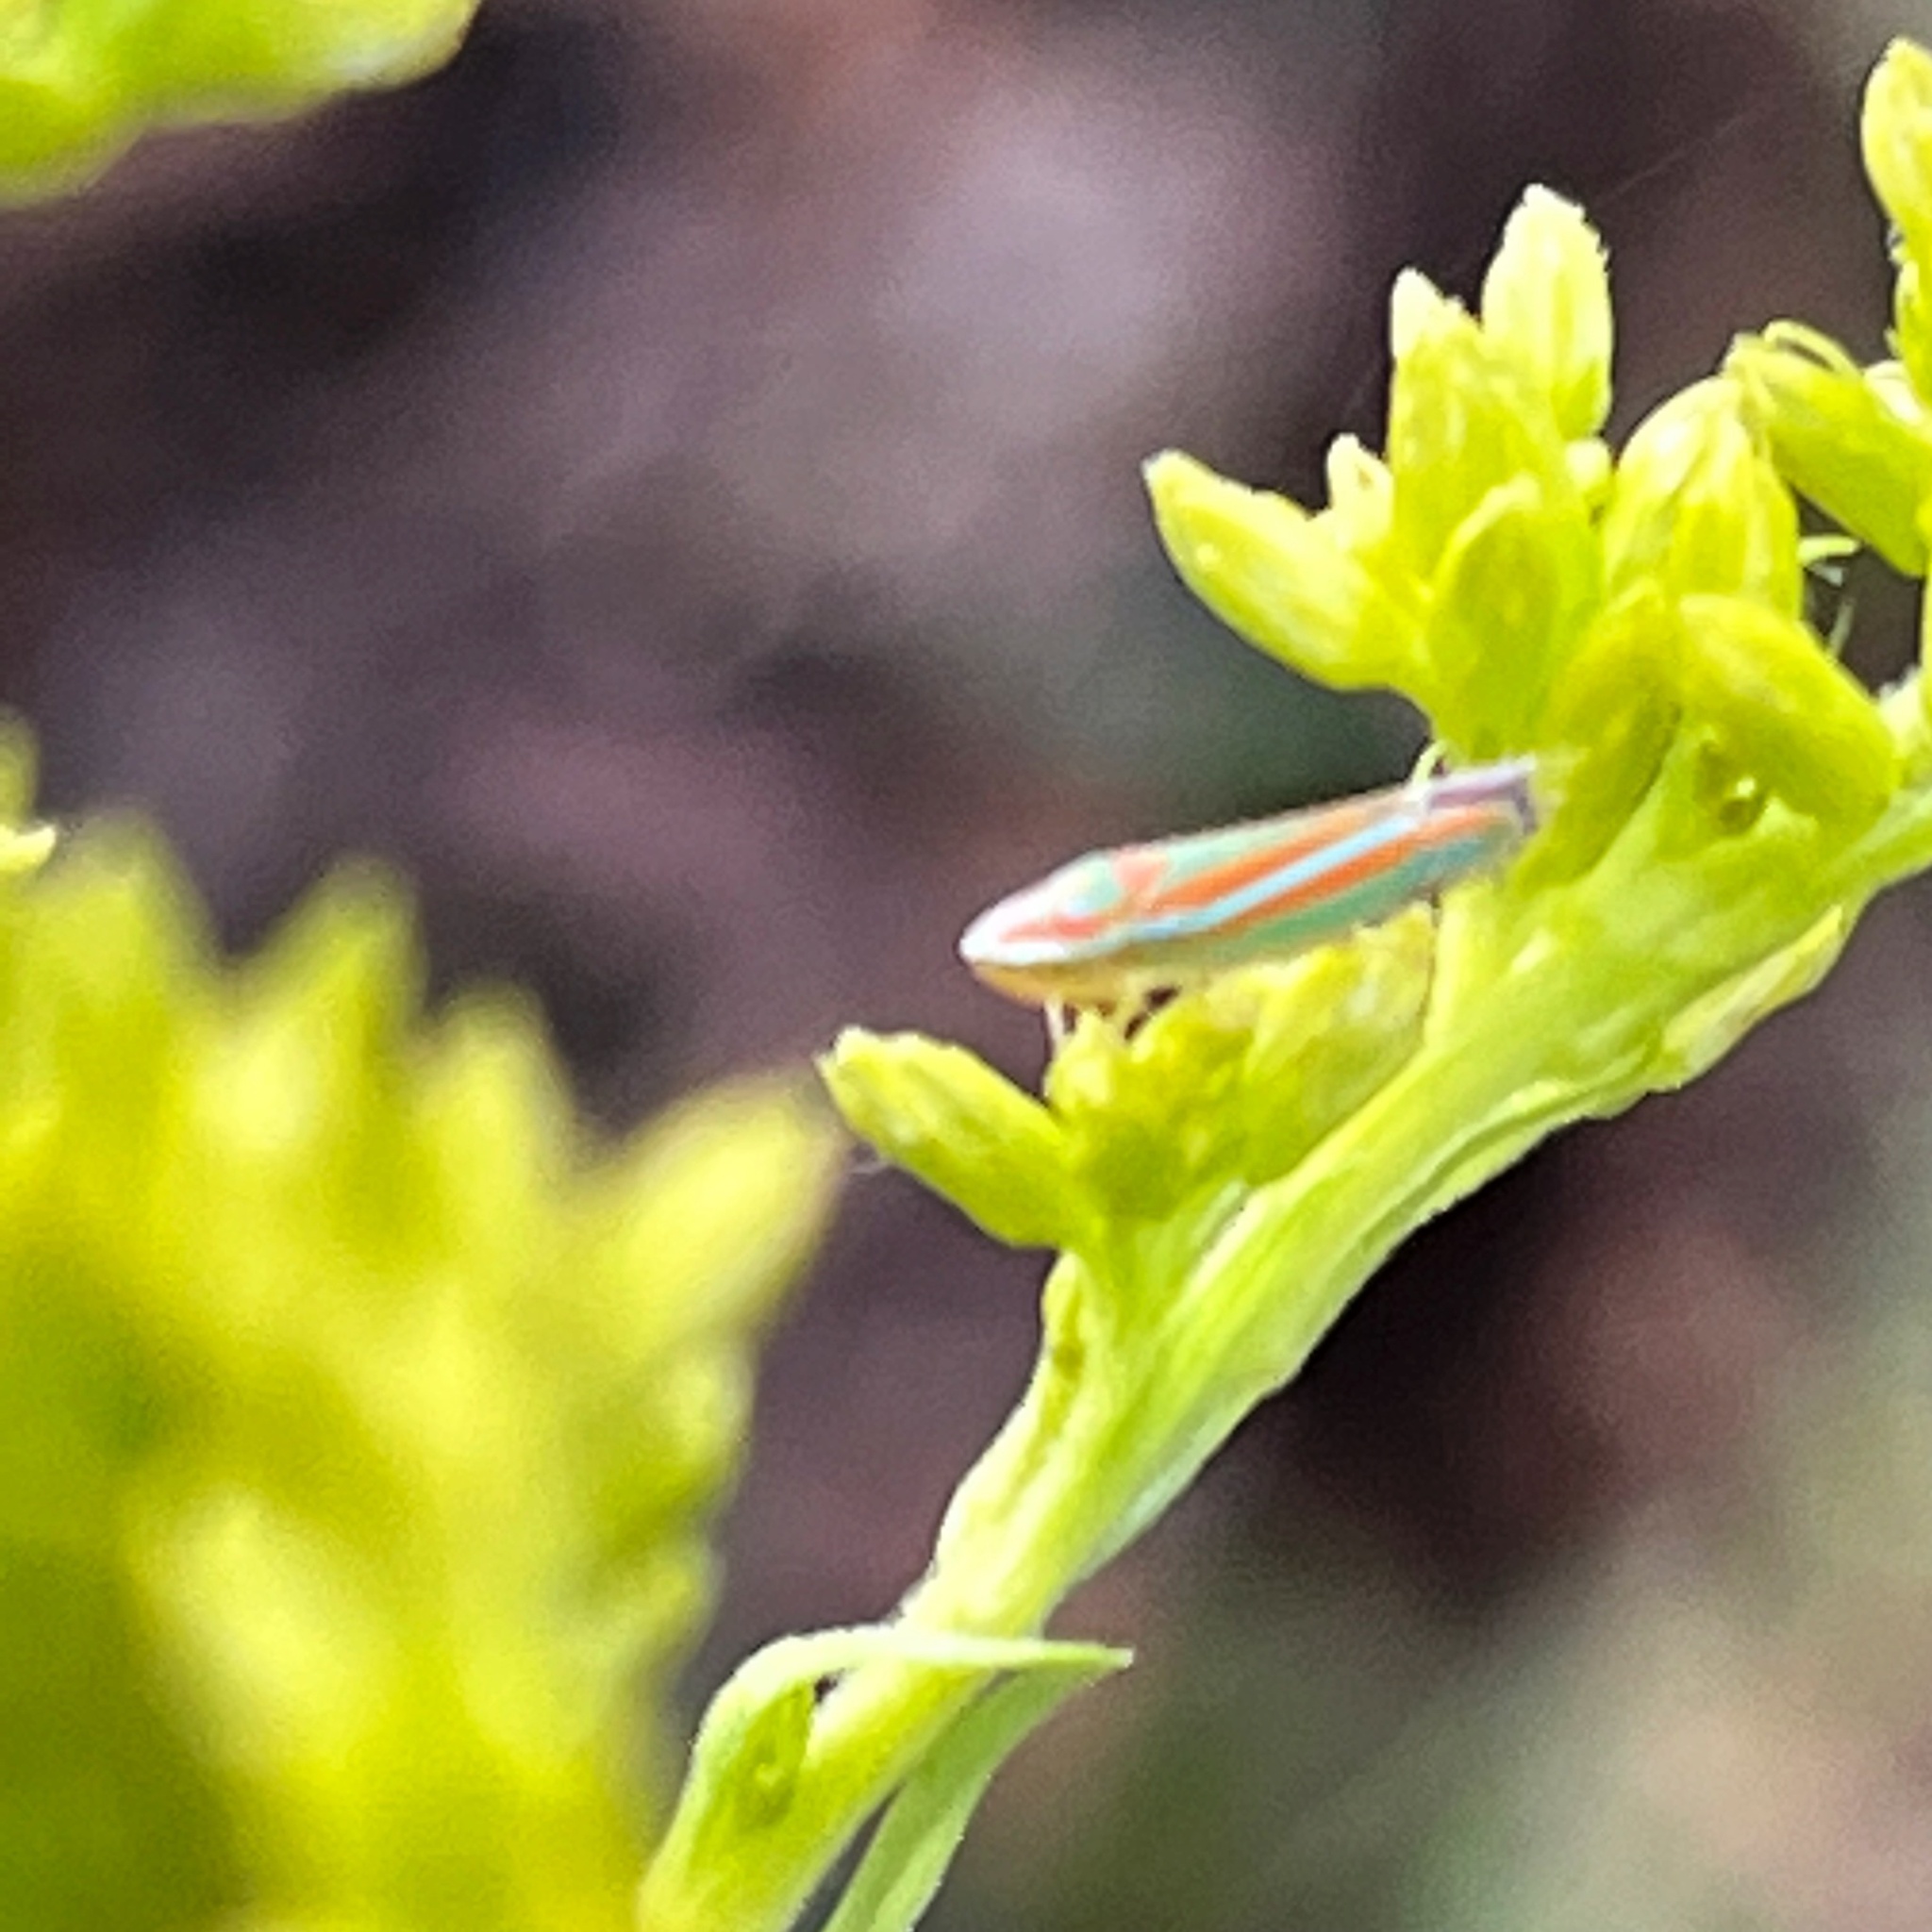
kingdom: Animalia
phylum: Arthropoda
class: Insecta
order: Hemiptera
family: Cicadellidae
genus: Graphocephala
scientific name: Graphocephala versuta
